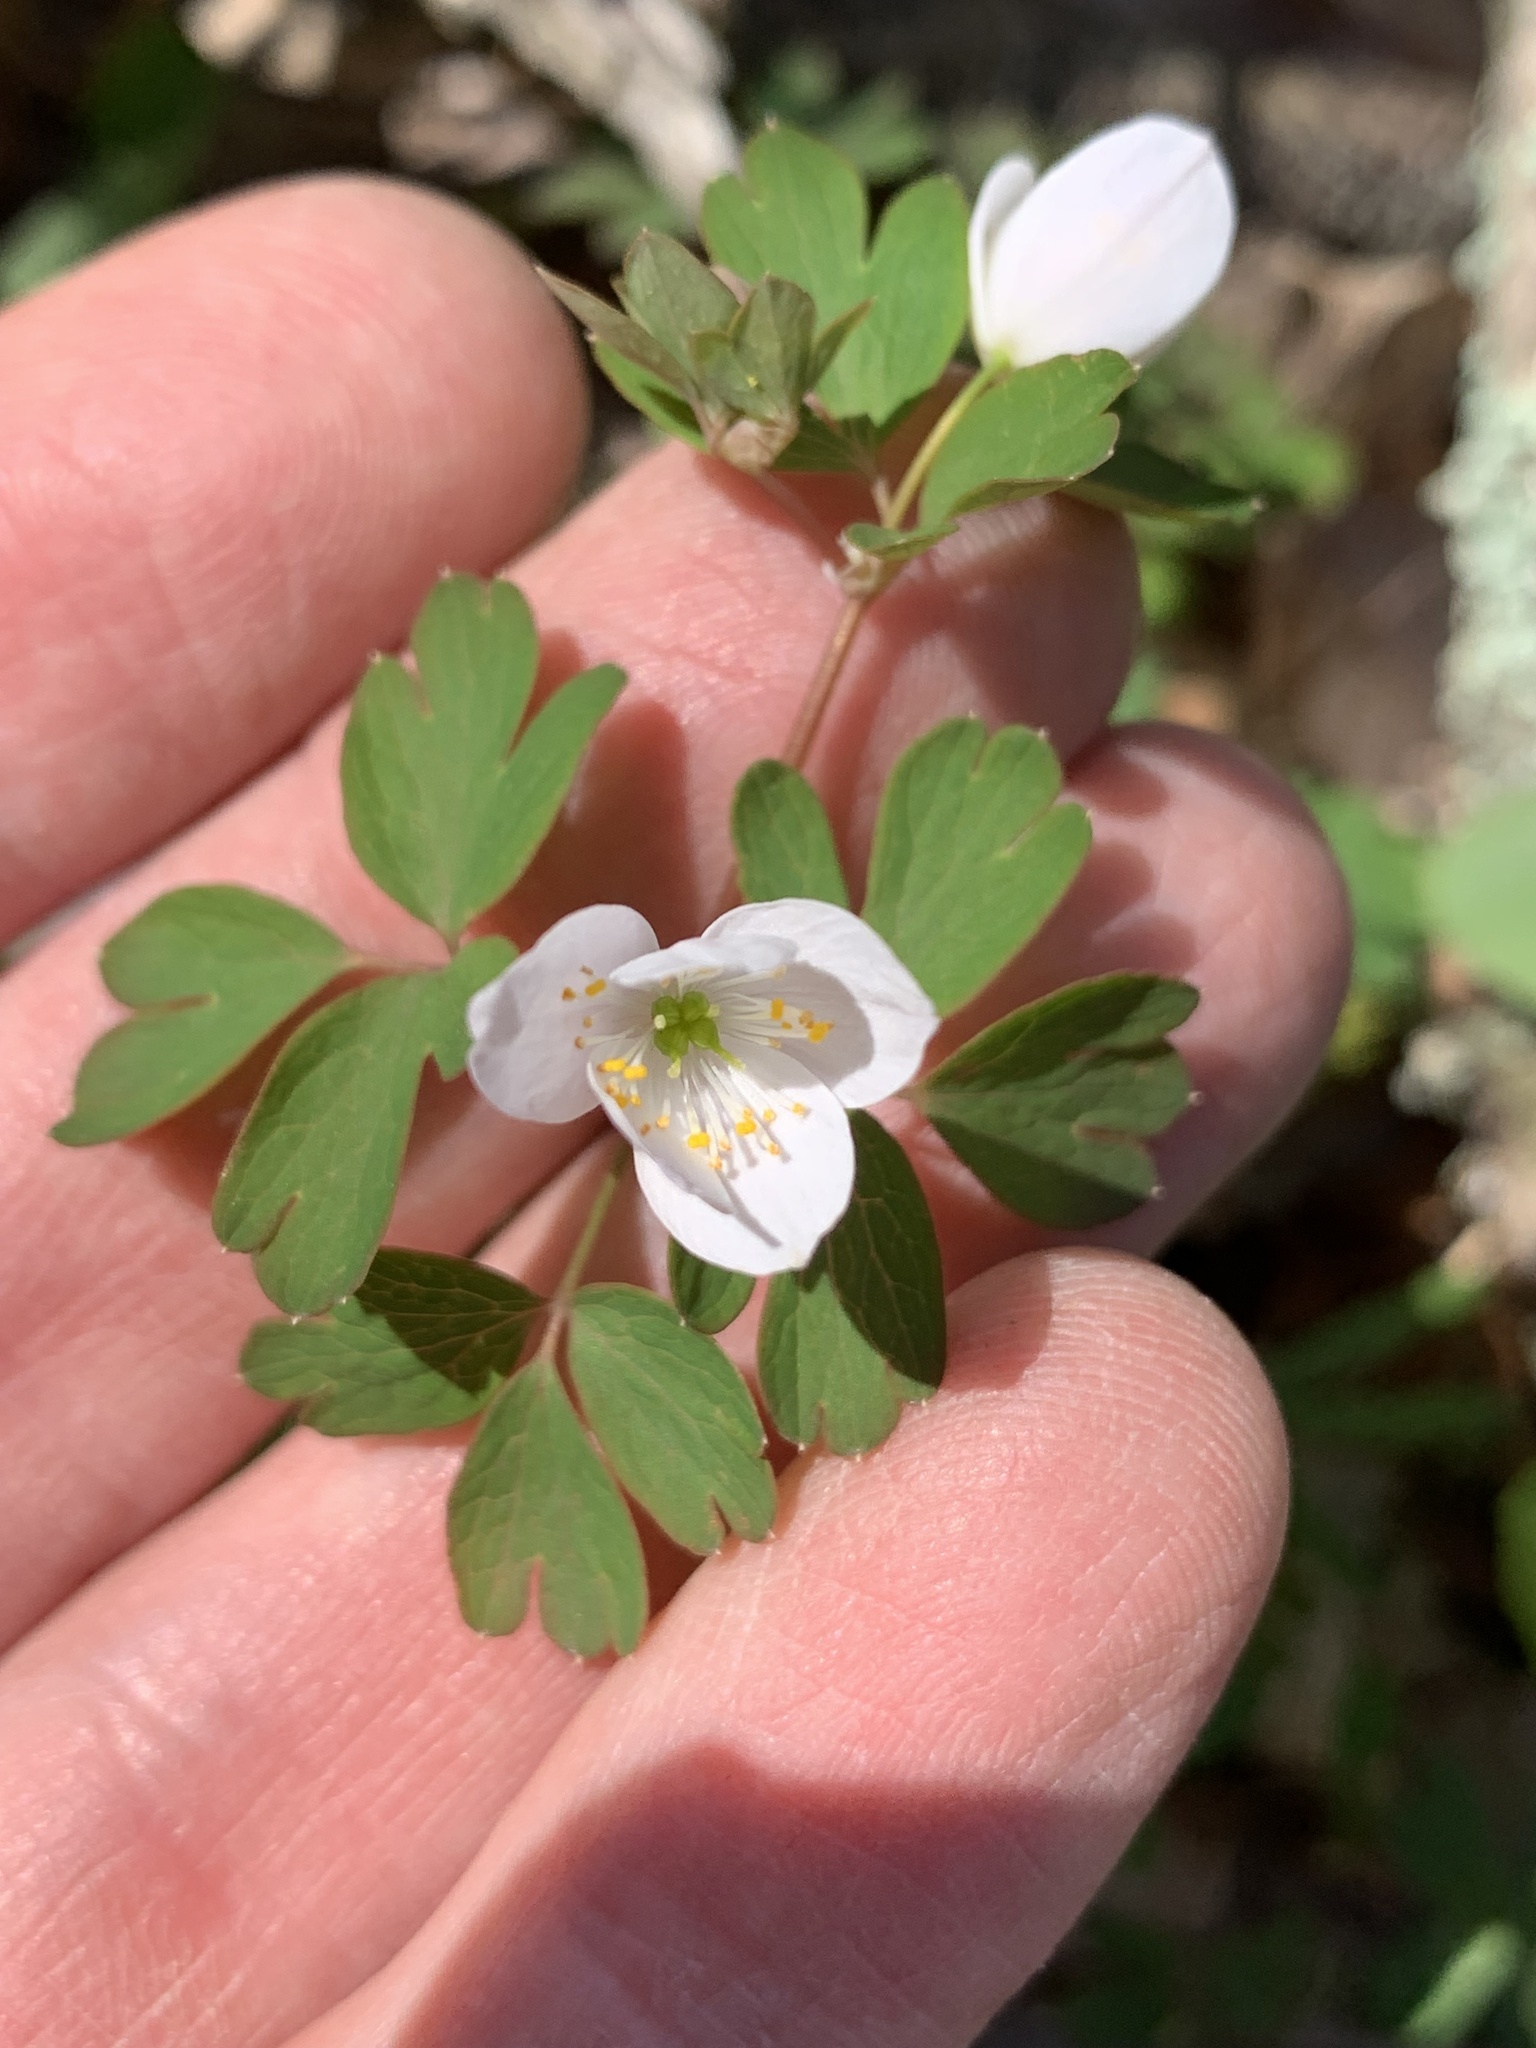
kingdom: Plantae
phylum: Tracheophyta
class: Magnoliopsida
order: Ranunculales
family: Ranunculaceae
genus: Enemion
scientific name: Enemion biternatum
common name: Eastern false rue-anemone
